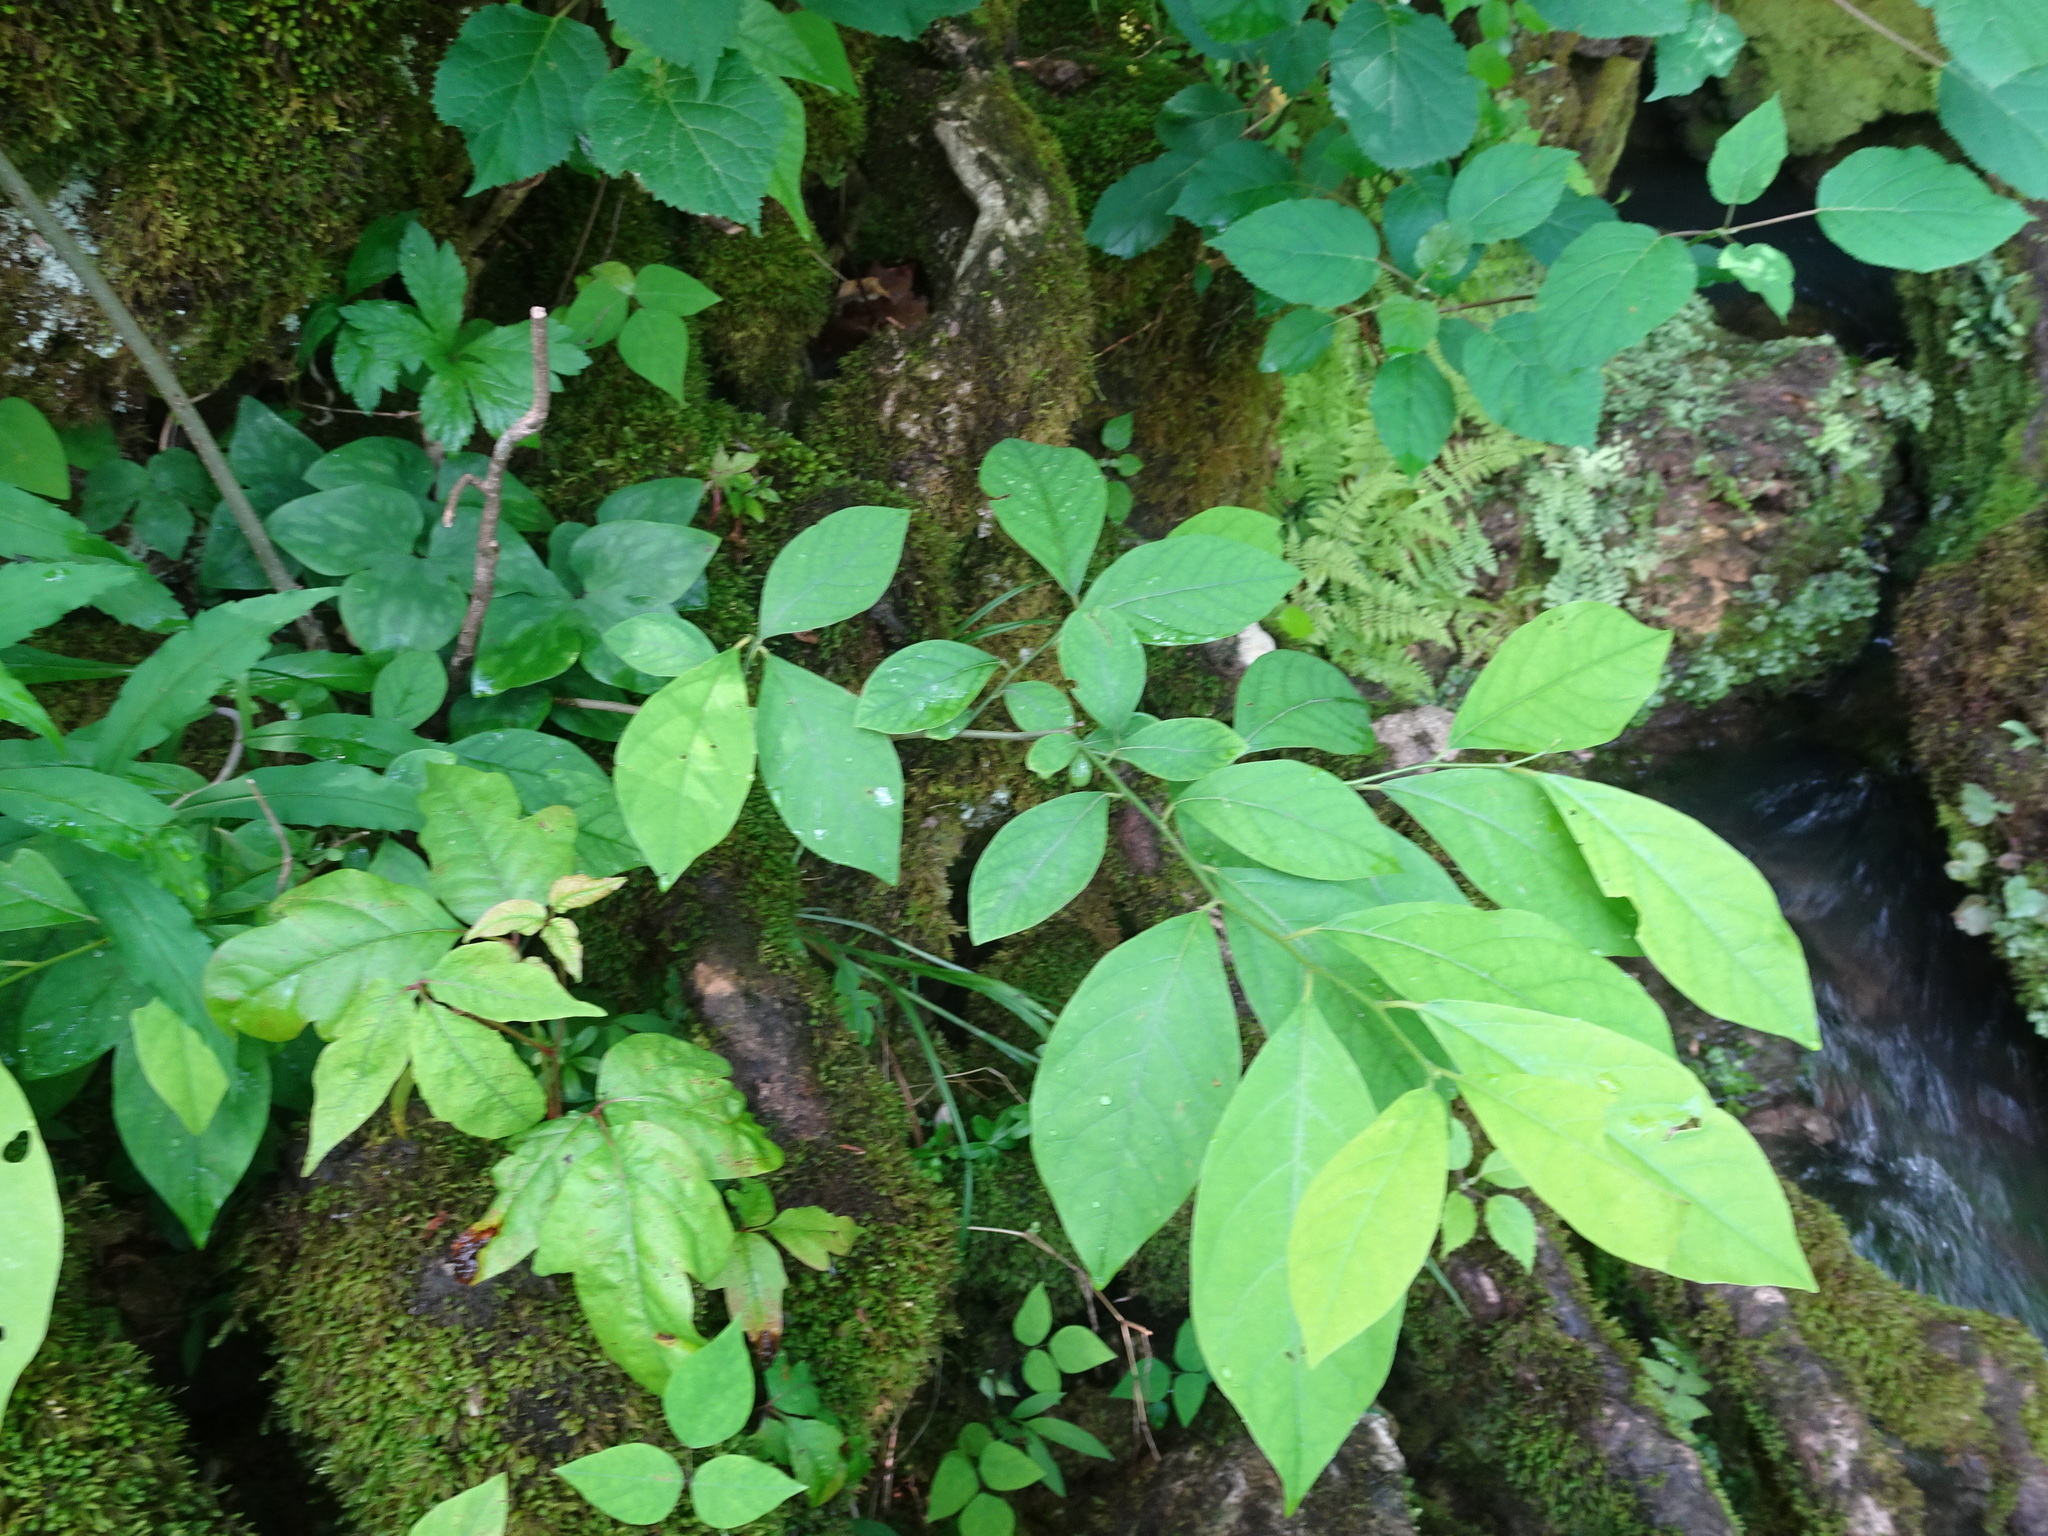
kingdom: Plantae
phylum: Tracheophyta
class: Magnoliopsida
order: Laurales
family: Lauraceae
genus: Lindera
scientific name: Lindera benzoin
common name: Spicebush
